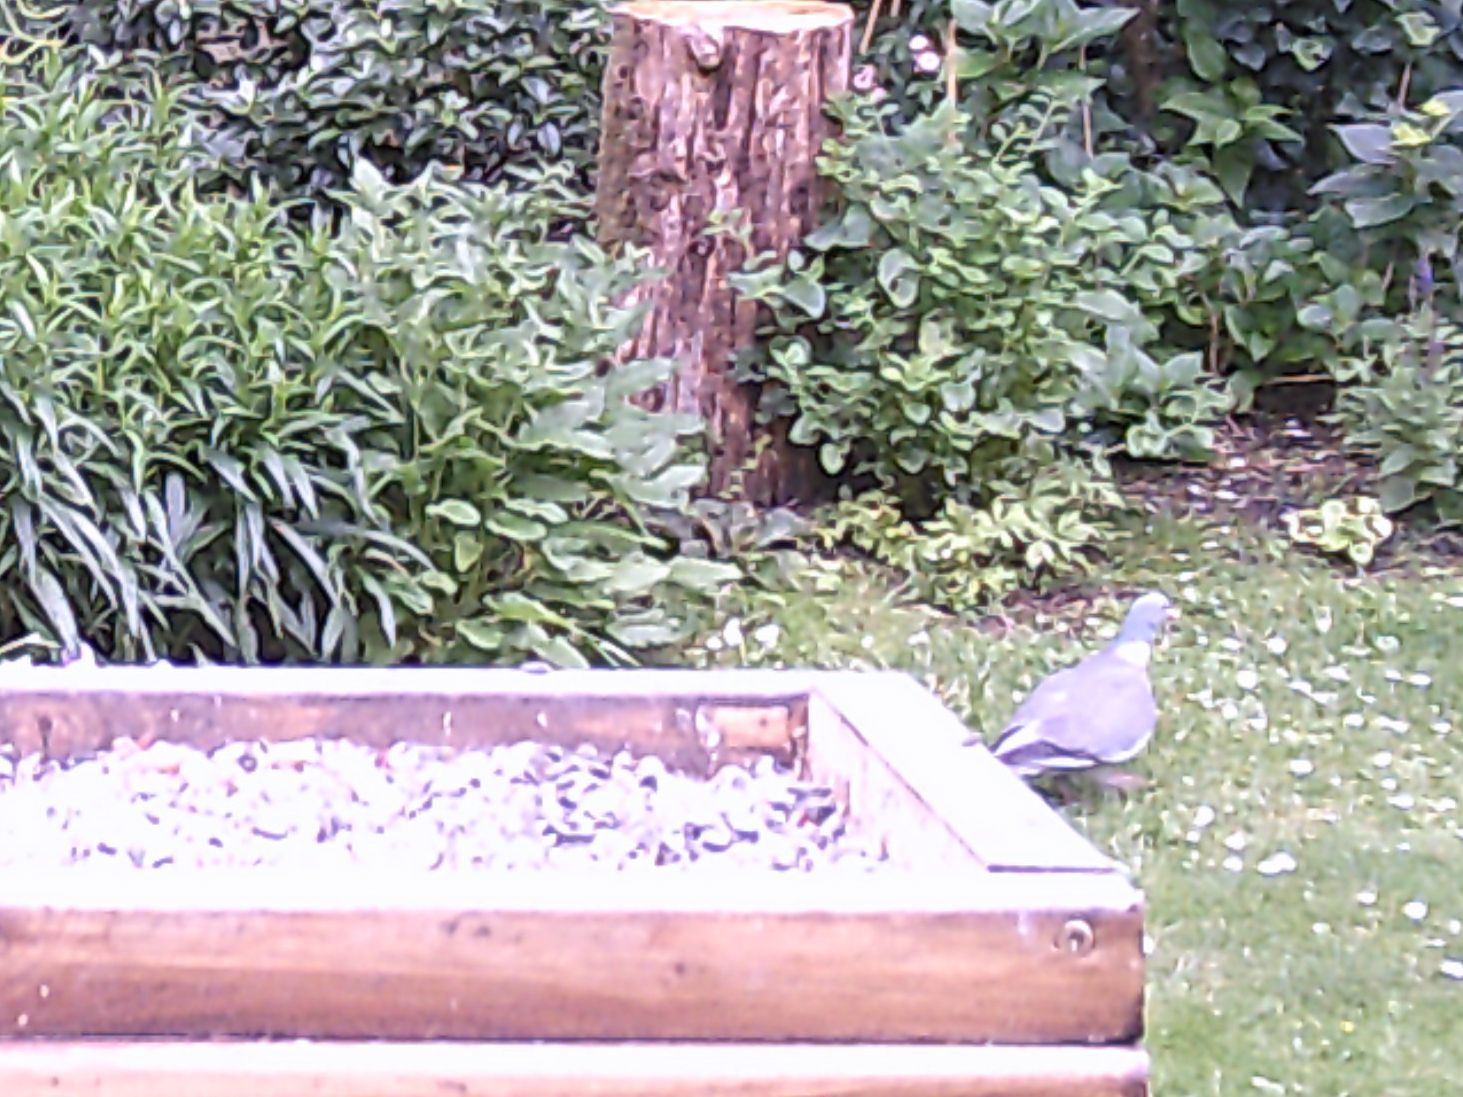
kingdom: Animalia
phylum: Chordata
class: Aves
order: Columbiformes
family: Columbidae
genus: Columba
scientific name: Columba palumbus
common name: Common wood pigeon
